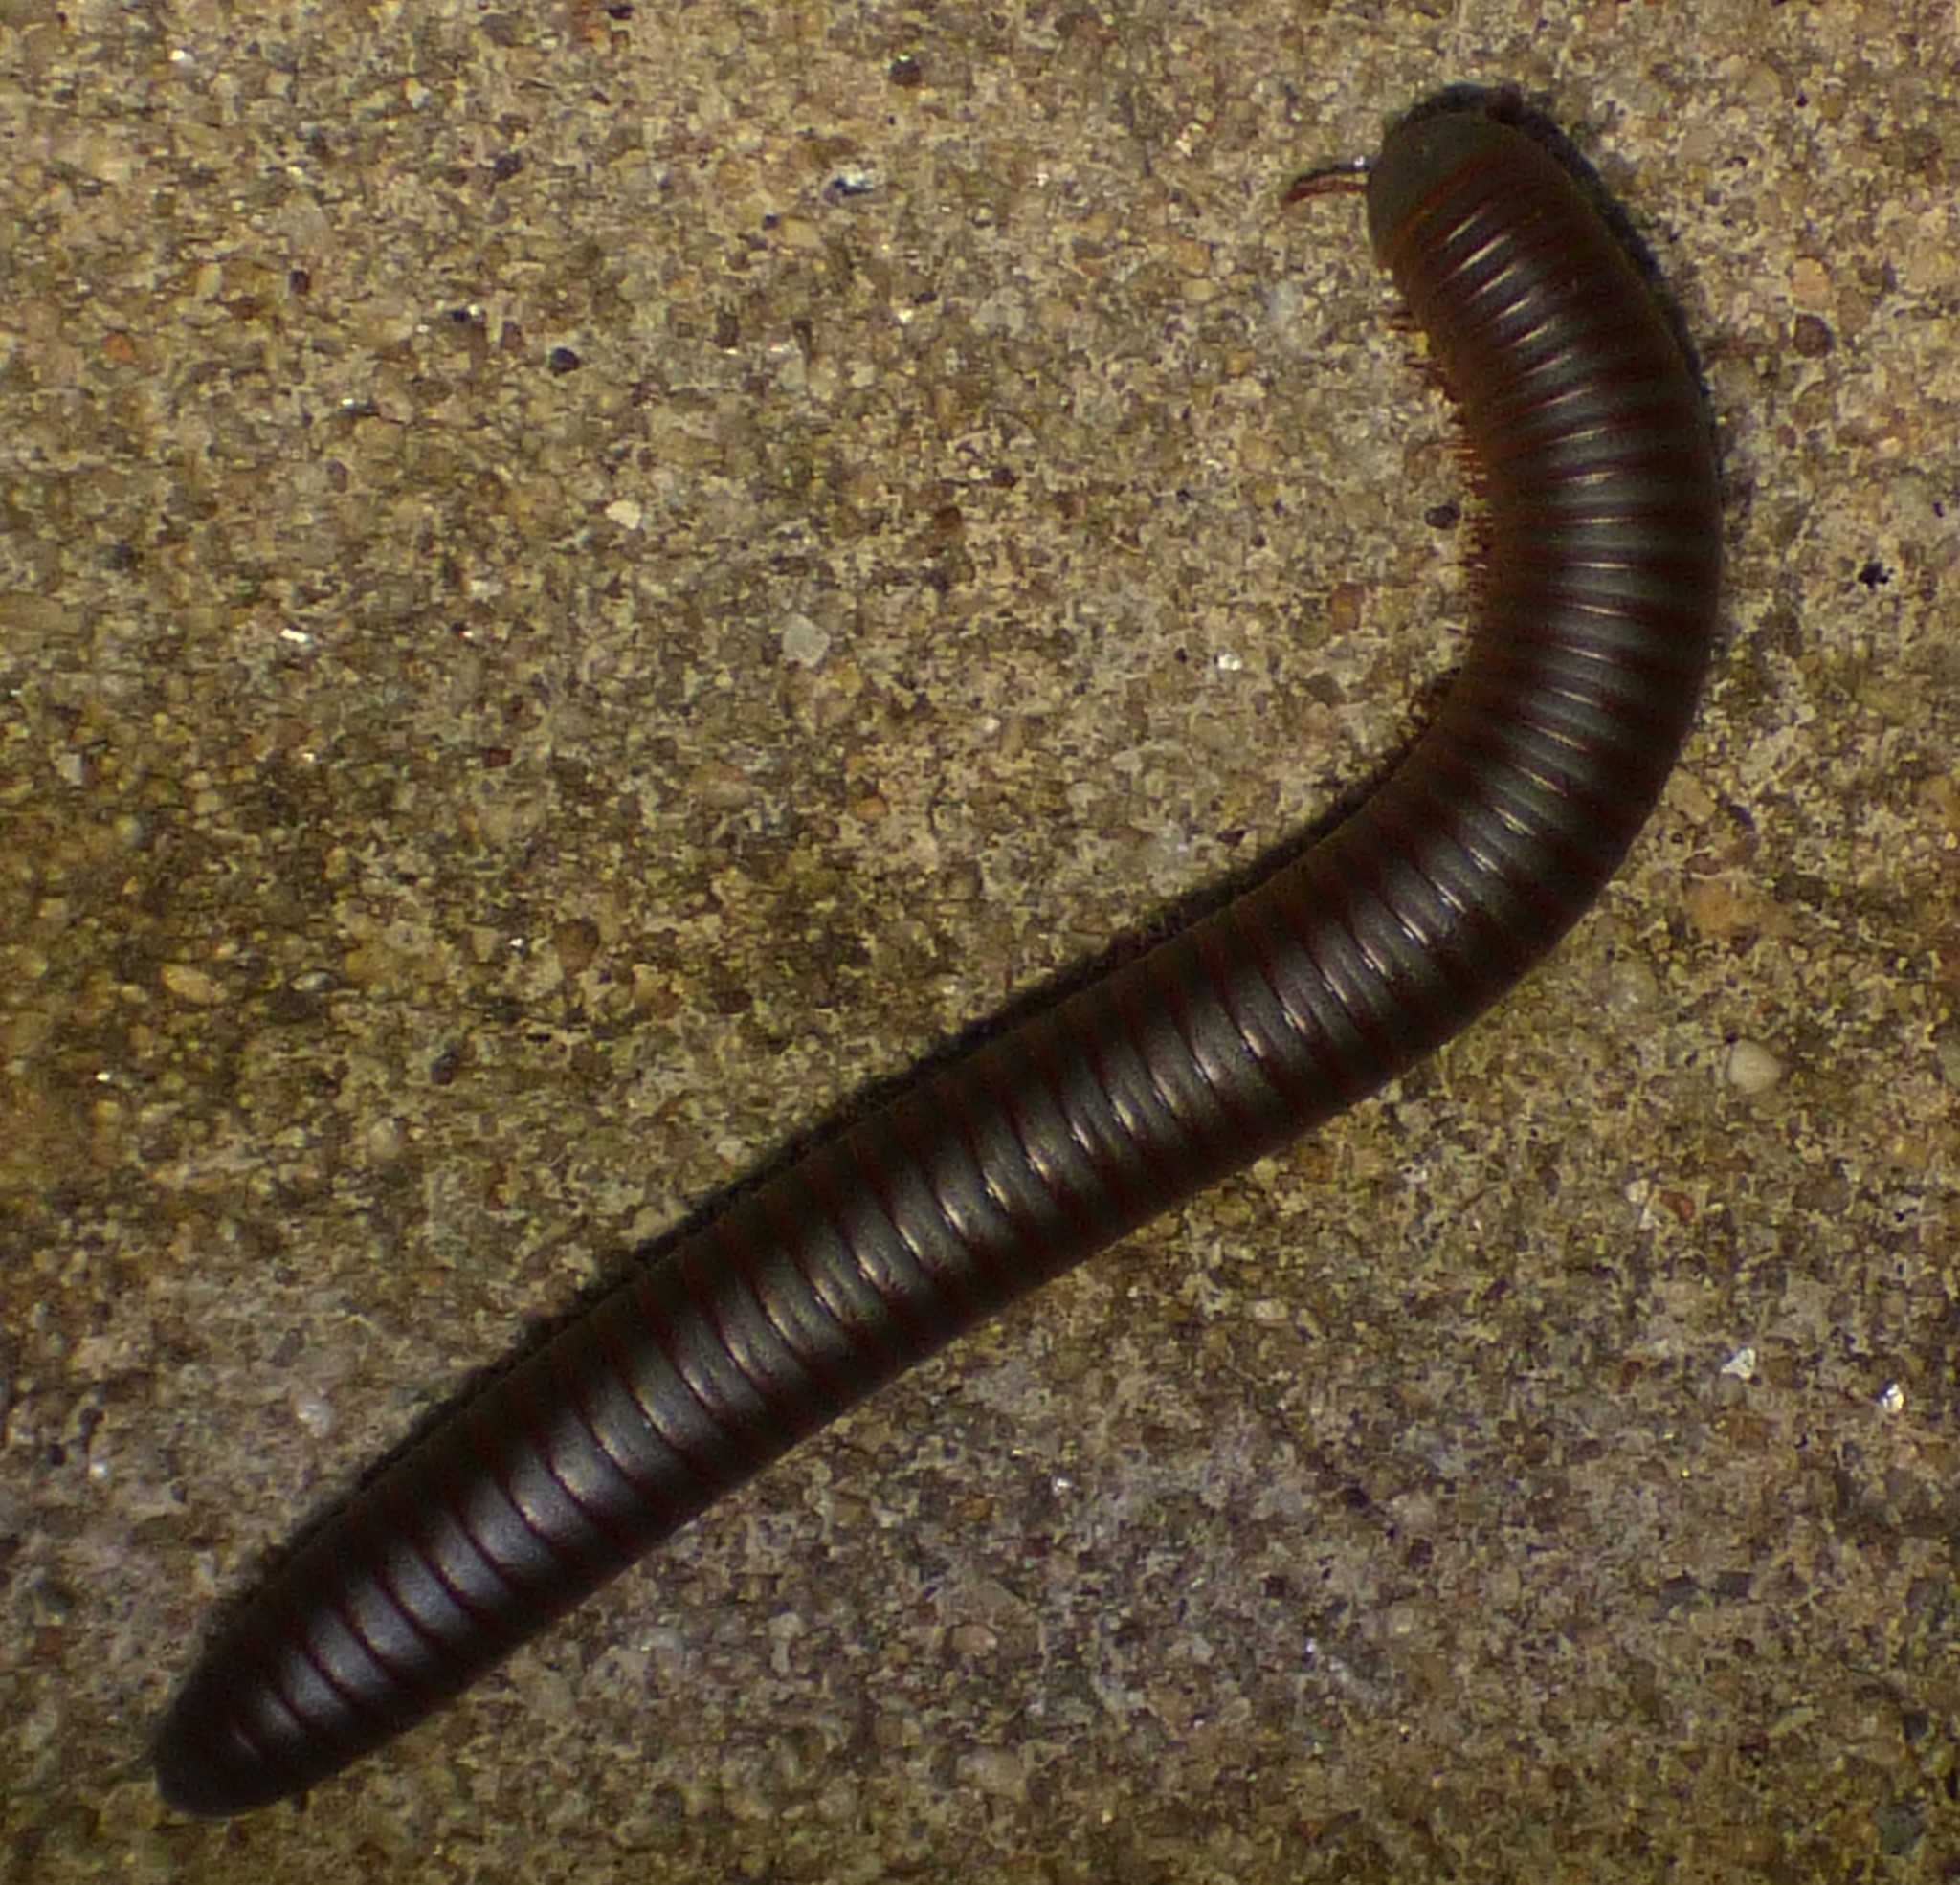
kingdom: Animalia
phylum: Arthropoda
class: Diplopoda
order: Spirobolida
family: Spirobolidae
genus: Narceus
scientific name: Narceus
